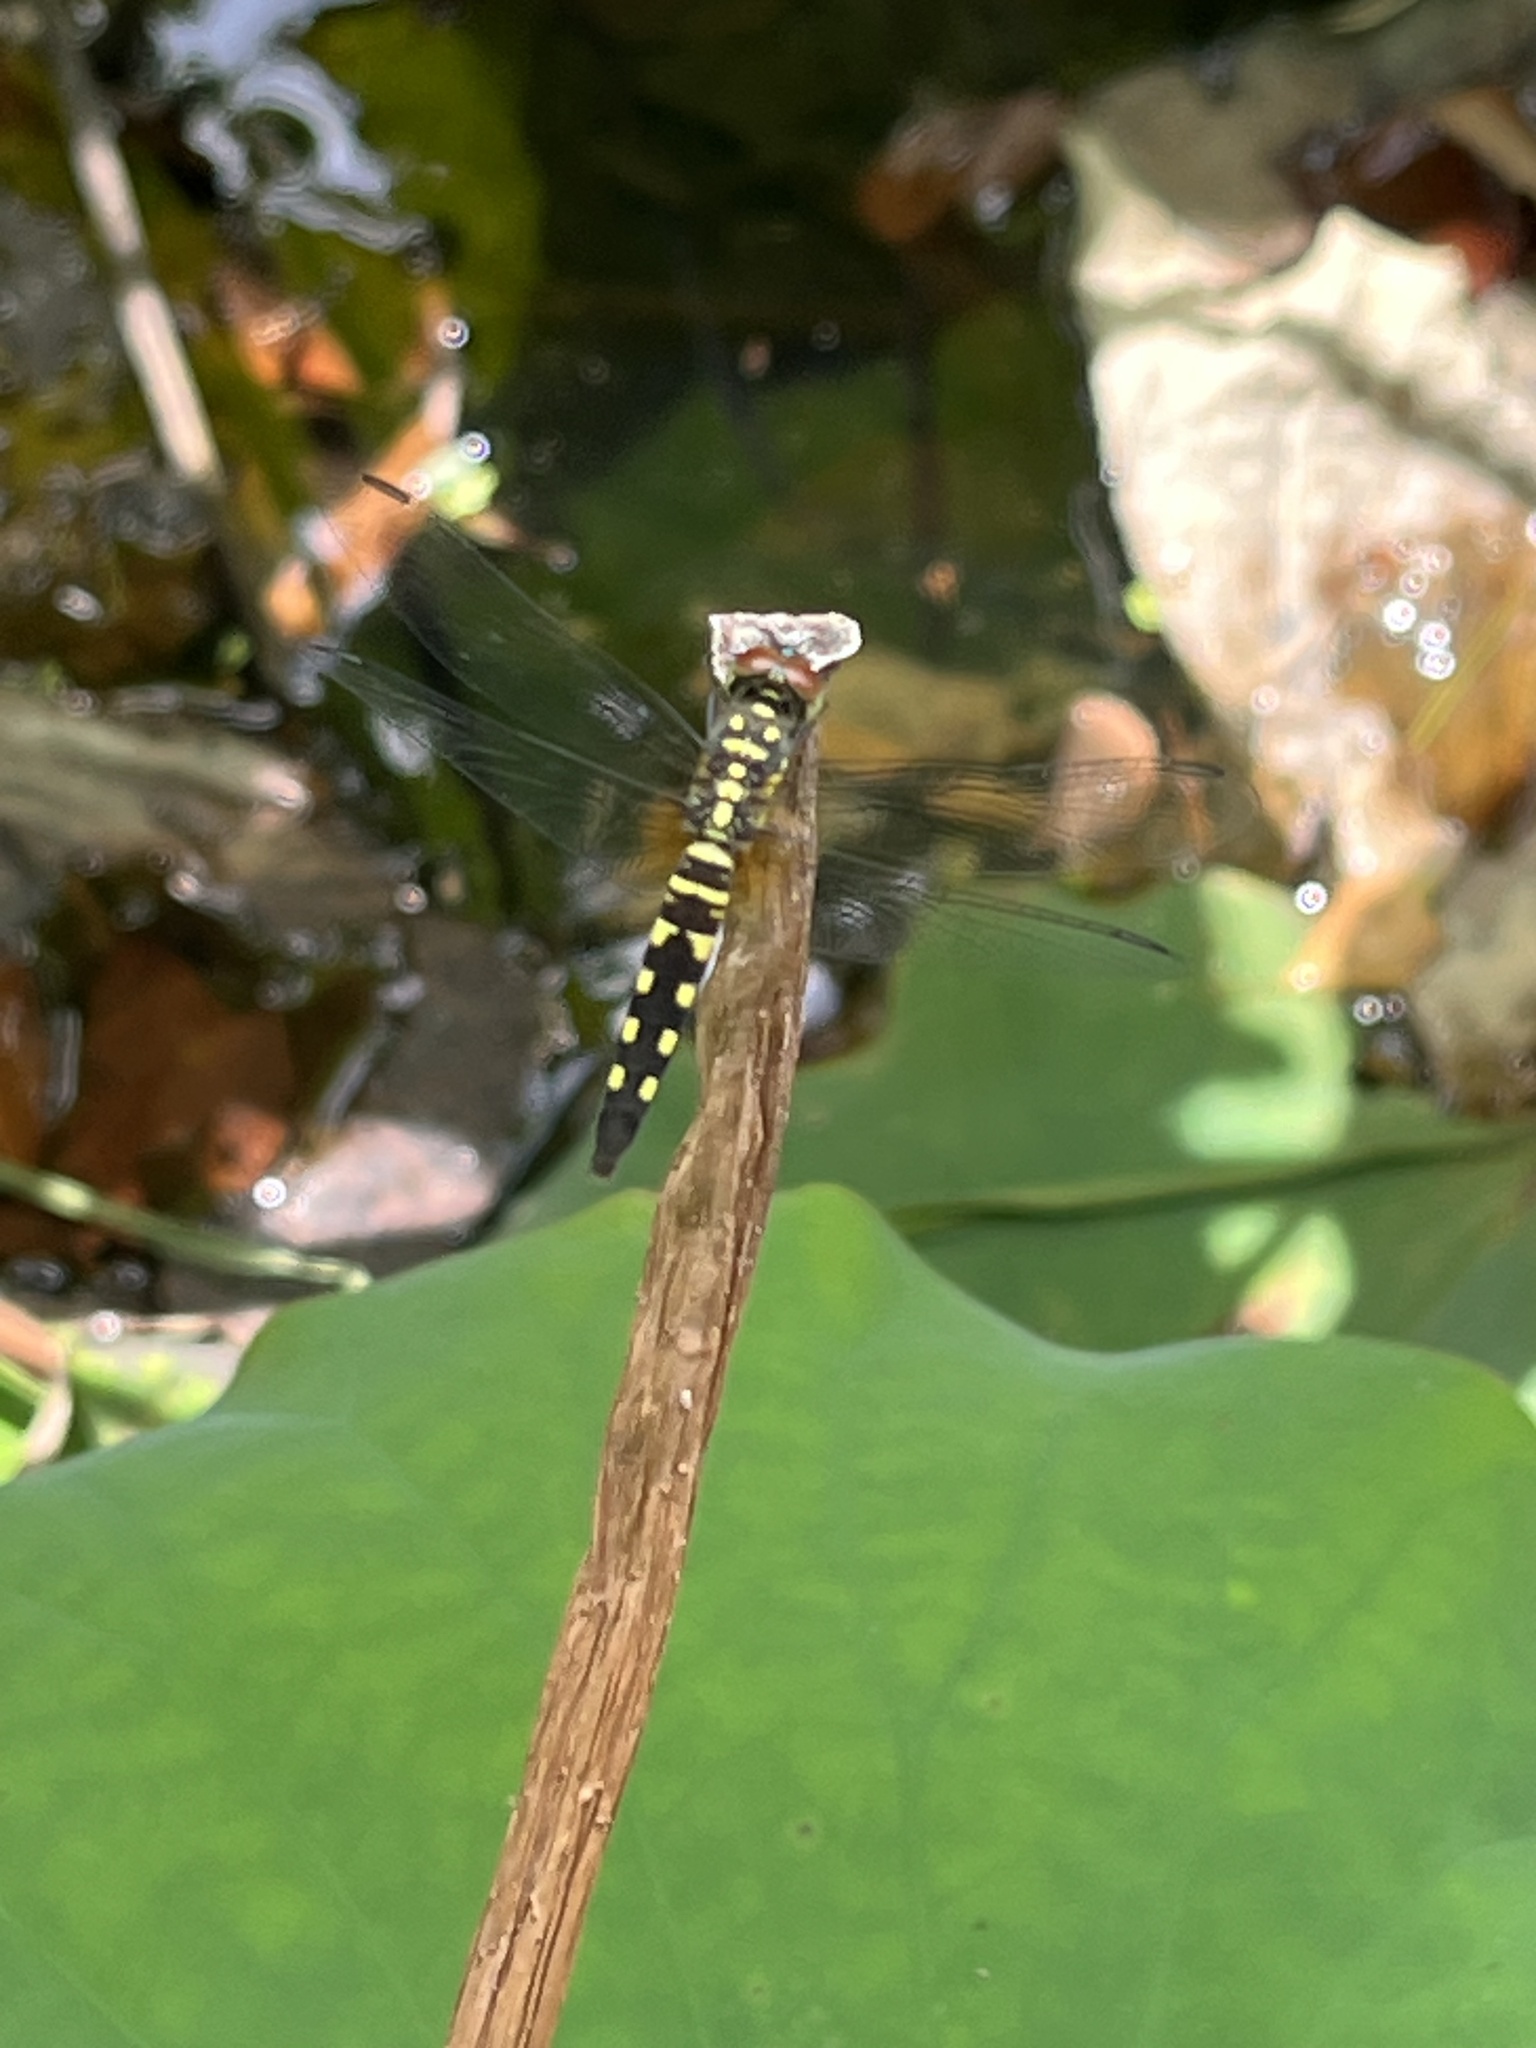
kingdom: Animalia
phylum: Arthropoda
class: Insecta
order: Odonata
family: Libellulidae
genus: Brachydiplax
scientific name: Brachydiplax chalybea
